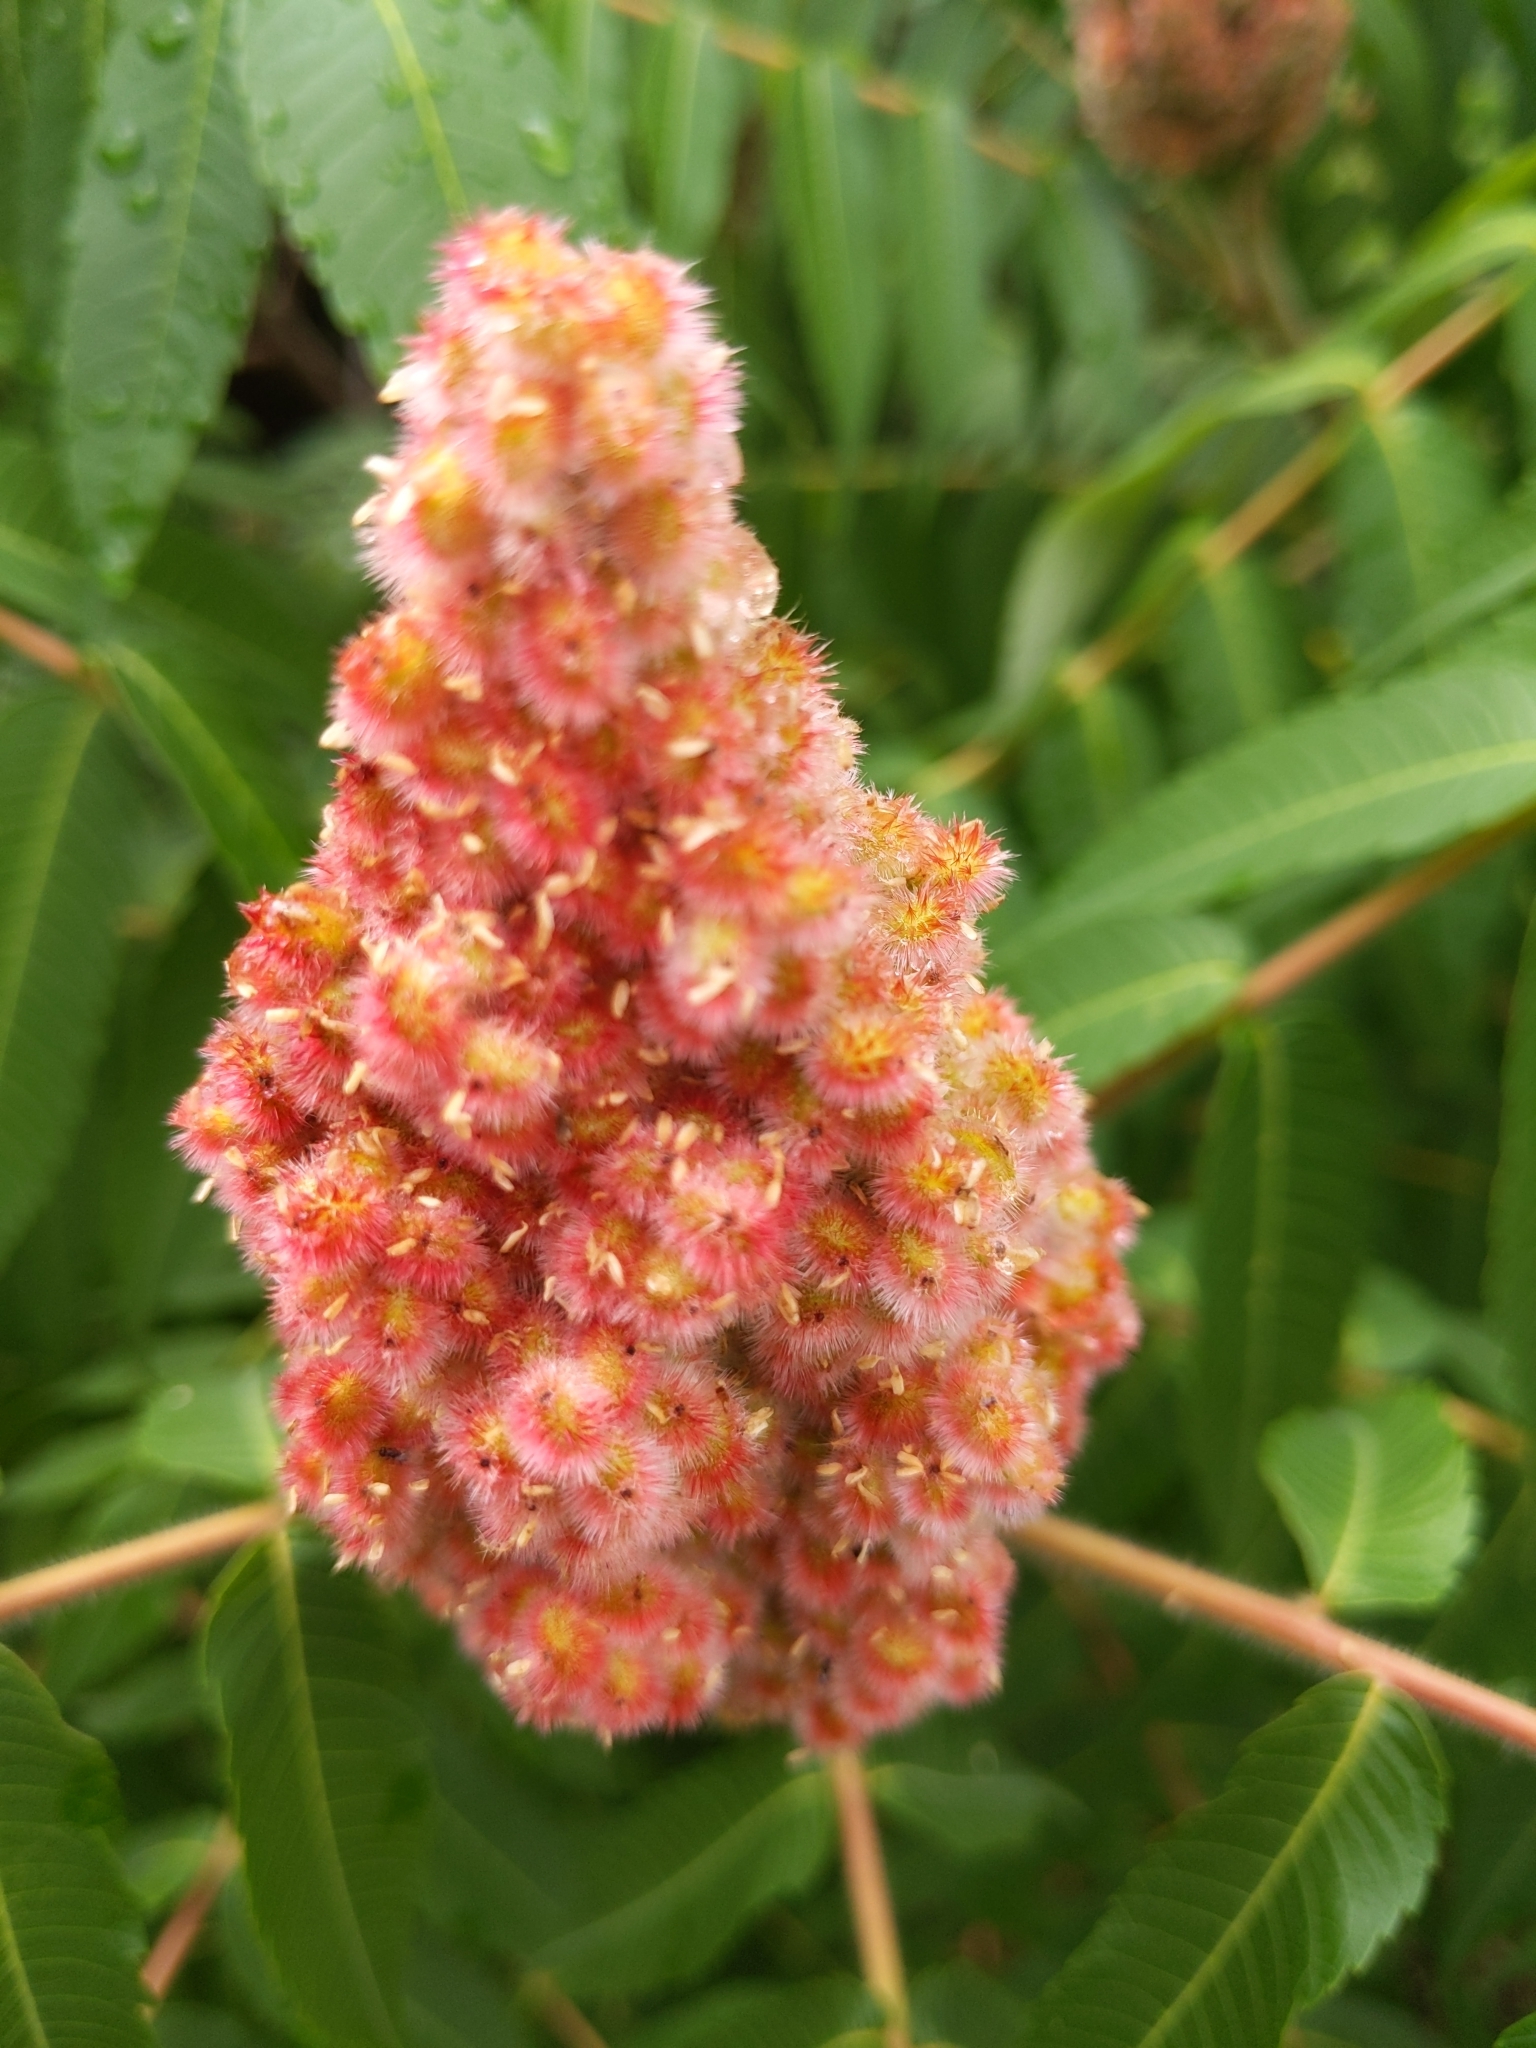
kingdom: Plantae
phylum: Tracheophyta
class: Magnoliopsida
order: Sapindales
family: Anacardiaceae
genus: Rhus
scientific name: Rhus typhina
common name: Staghorn sumac
